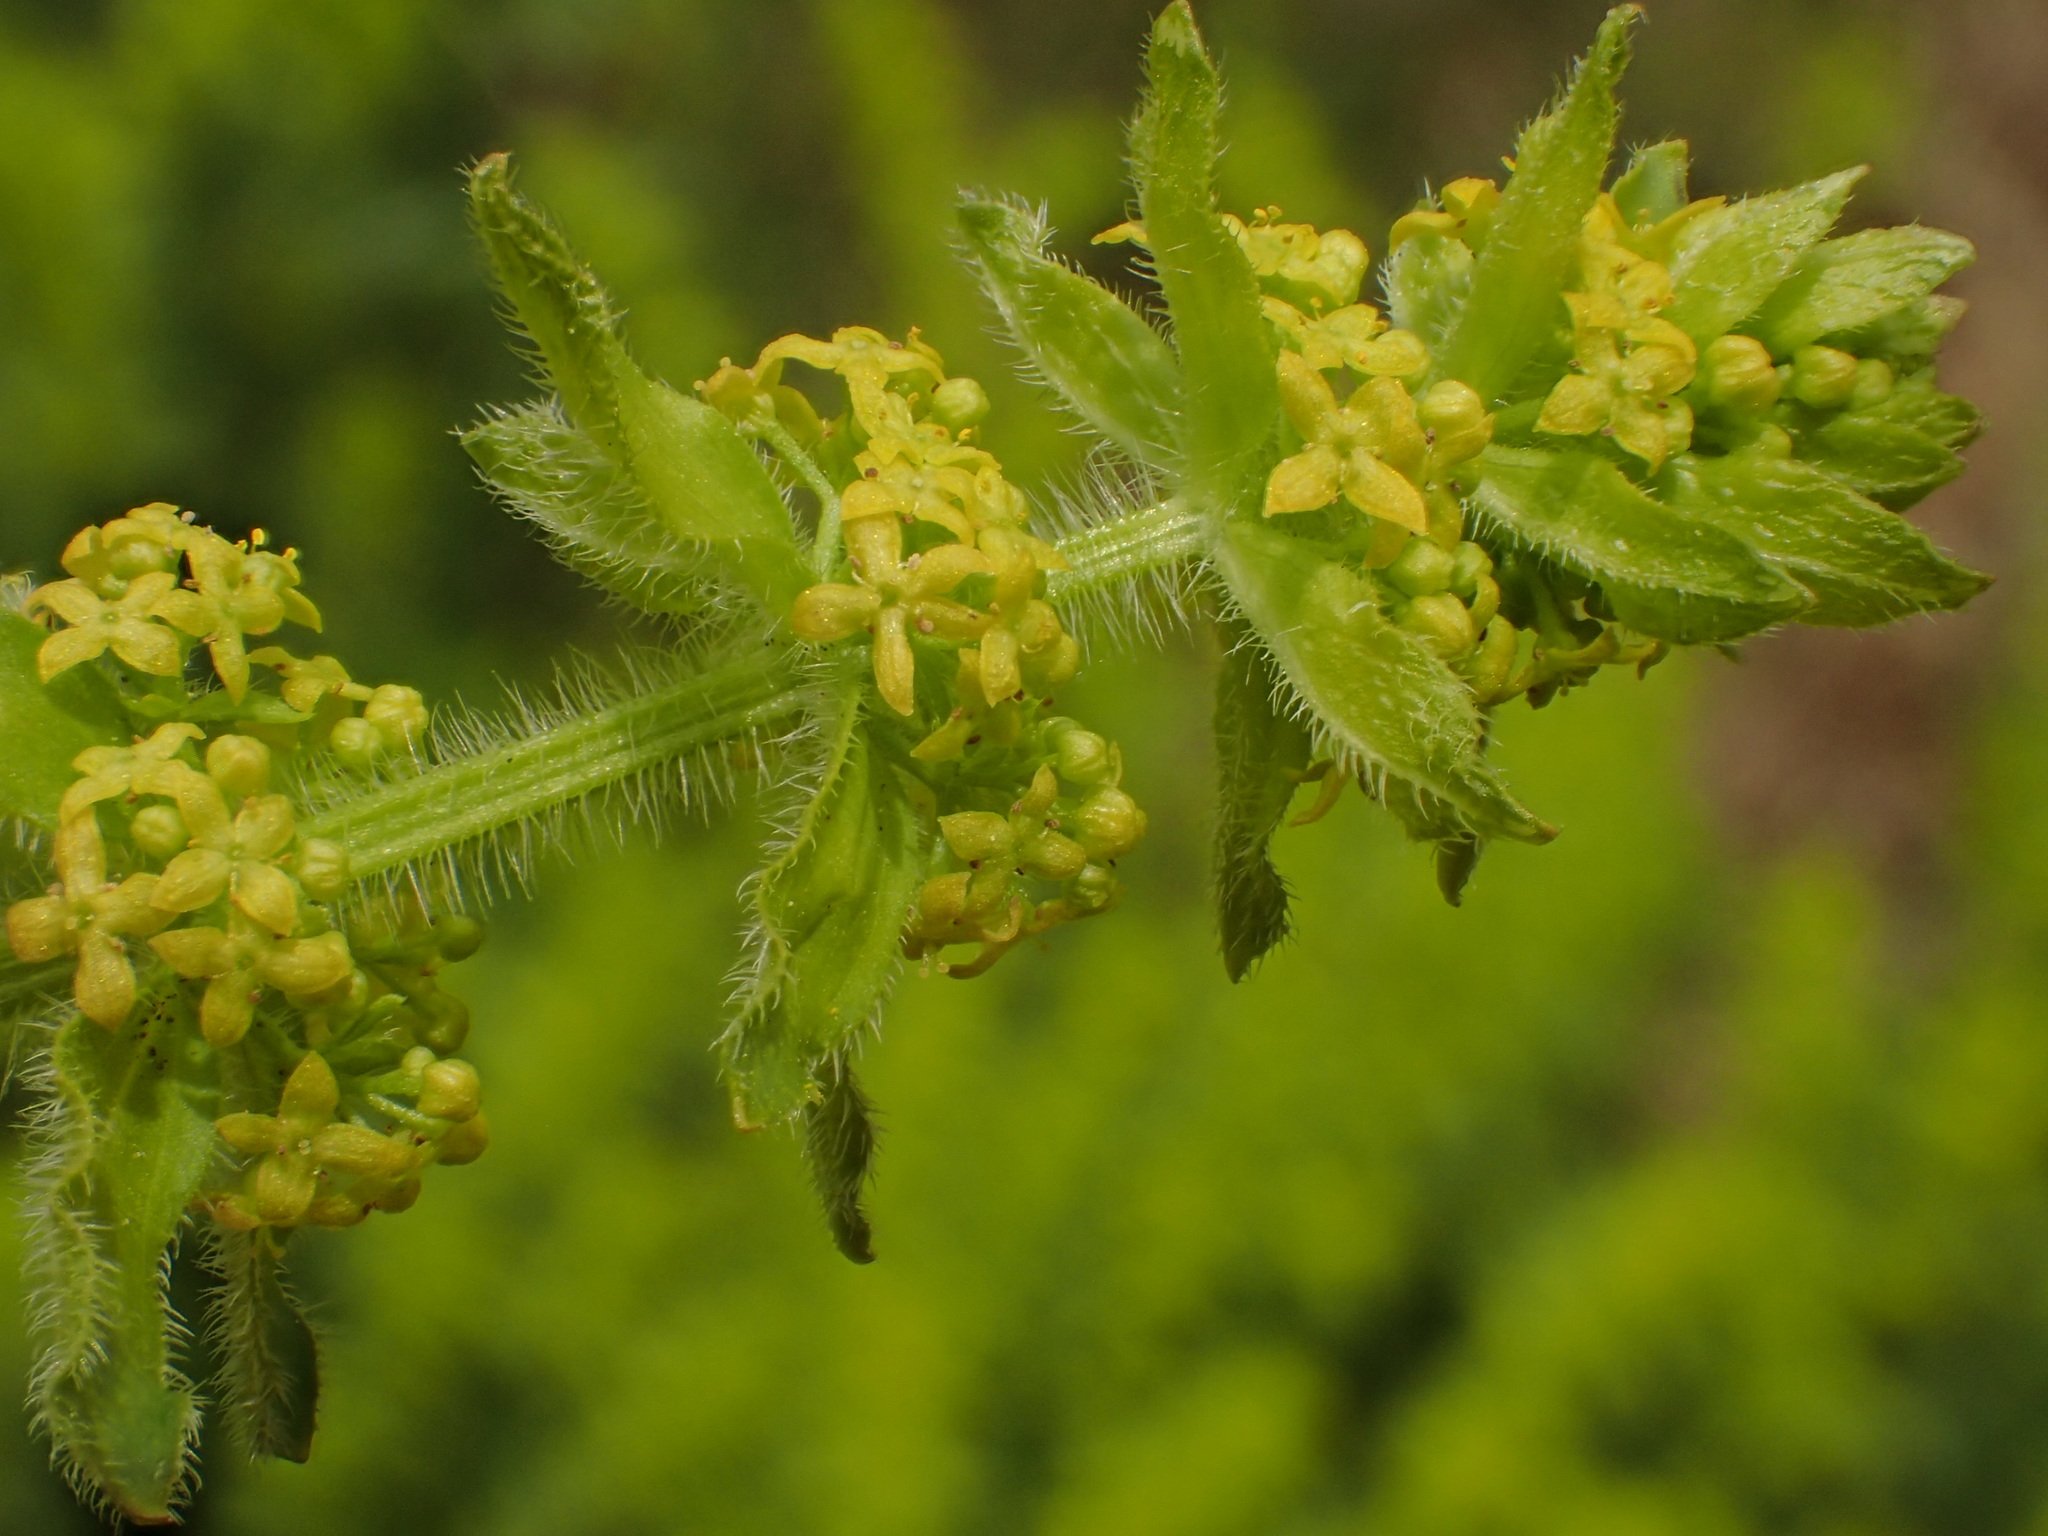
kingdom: Plantae
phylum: Tracheophyta
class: Magnoliopsida
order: Gentianales
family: Rubiaceae
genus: Cruciata
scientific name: Cruciata laevipes
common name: Crosswort
